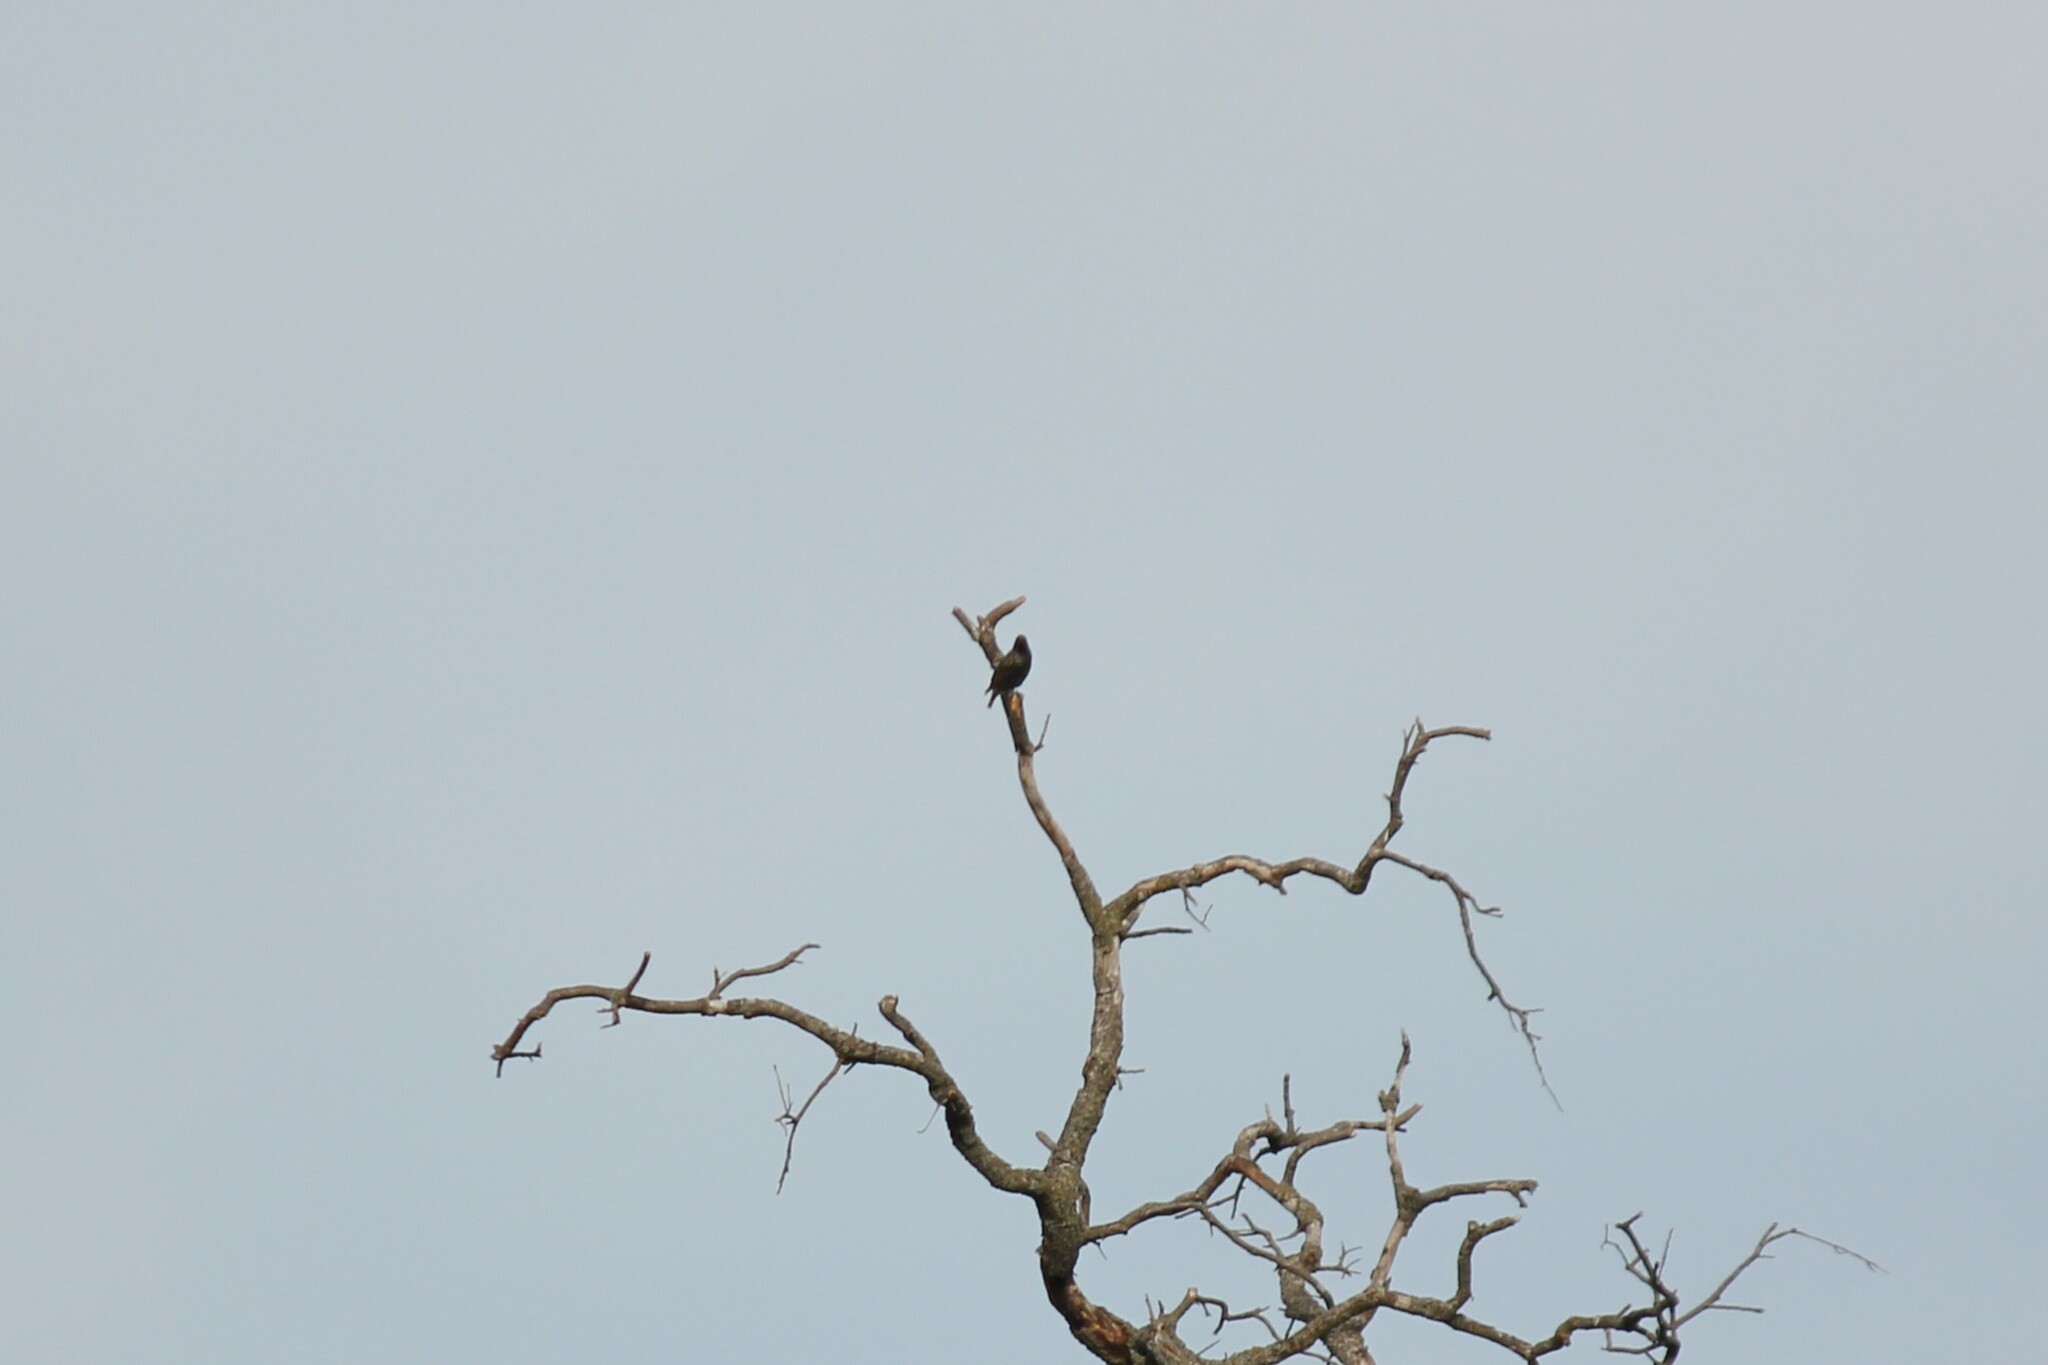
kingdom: Animalia
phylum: Chordata
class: Aves
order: Passeriformes
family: Sturnidae
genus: Sturnus
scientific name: Sturnus vulgaris
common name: Common starling
